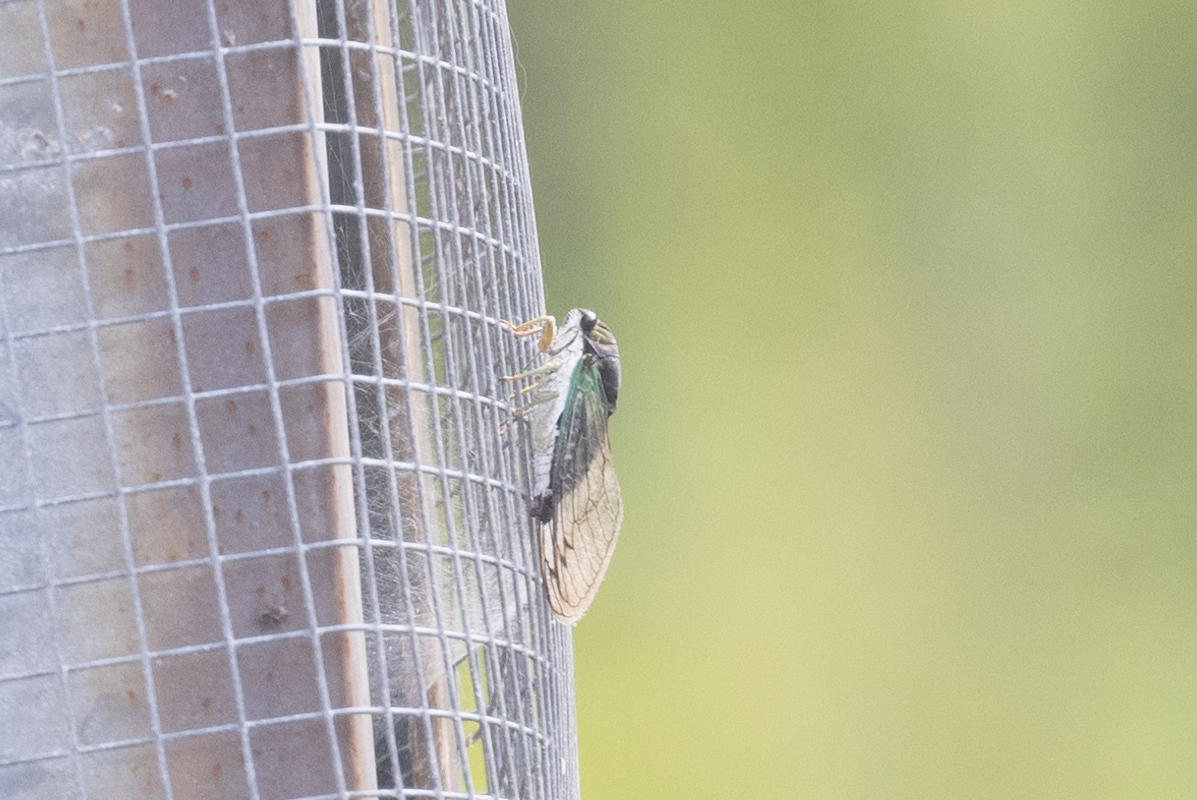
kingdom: Animalia
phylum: Arthropoda
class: Insecta
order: Hemiptera
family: Cicadidae
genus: Neotibicen
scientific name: Neotibicen tibicen
